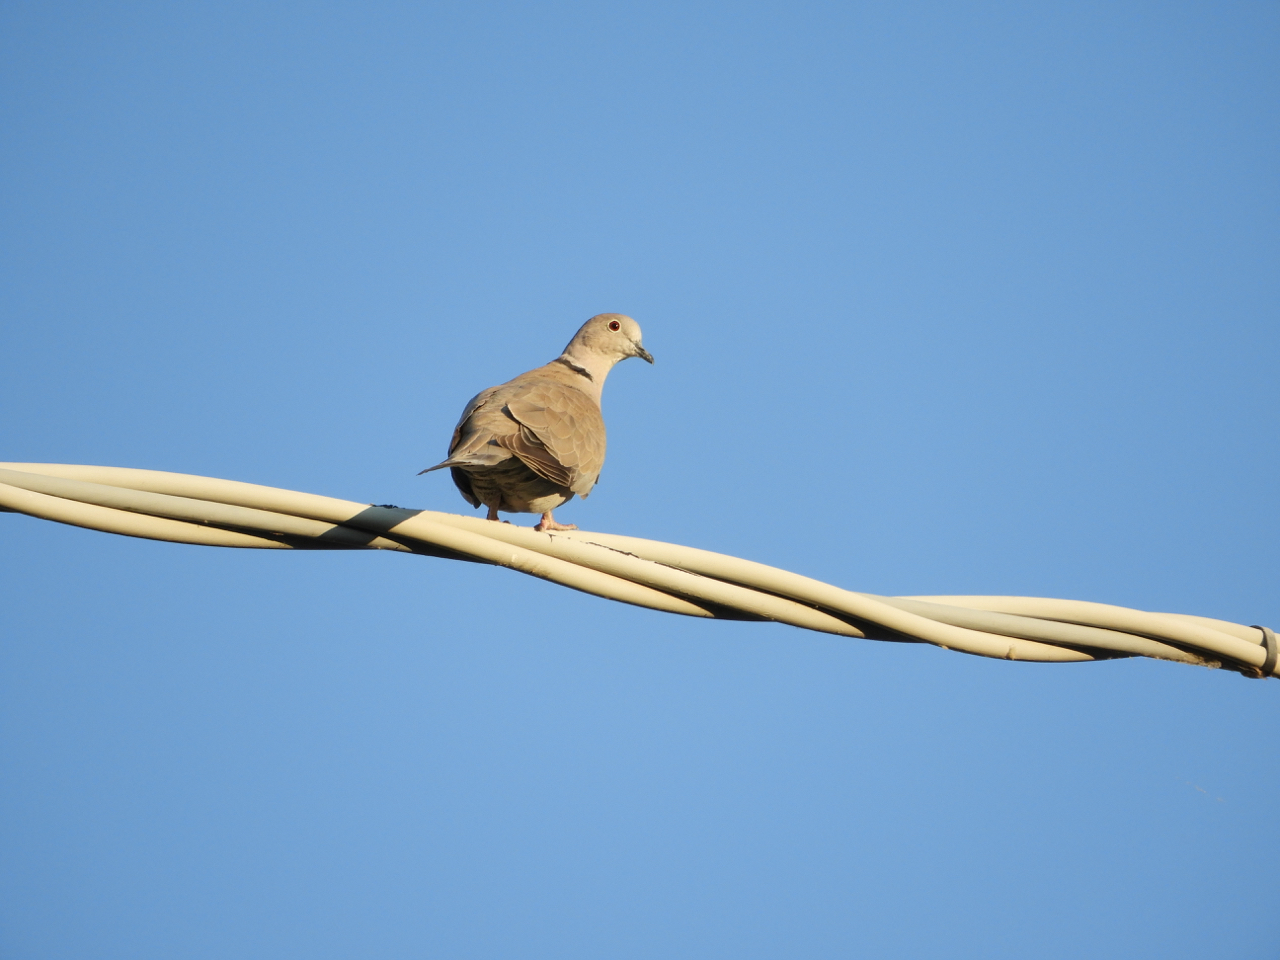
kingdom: Animalia
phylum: Chordata
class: Aves
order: Columbiformes
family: Columbidae
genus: Streptopelia
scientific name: Streptopelia decaocto
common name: Eurasian collared dove
